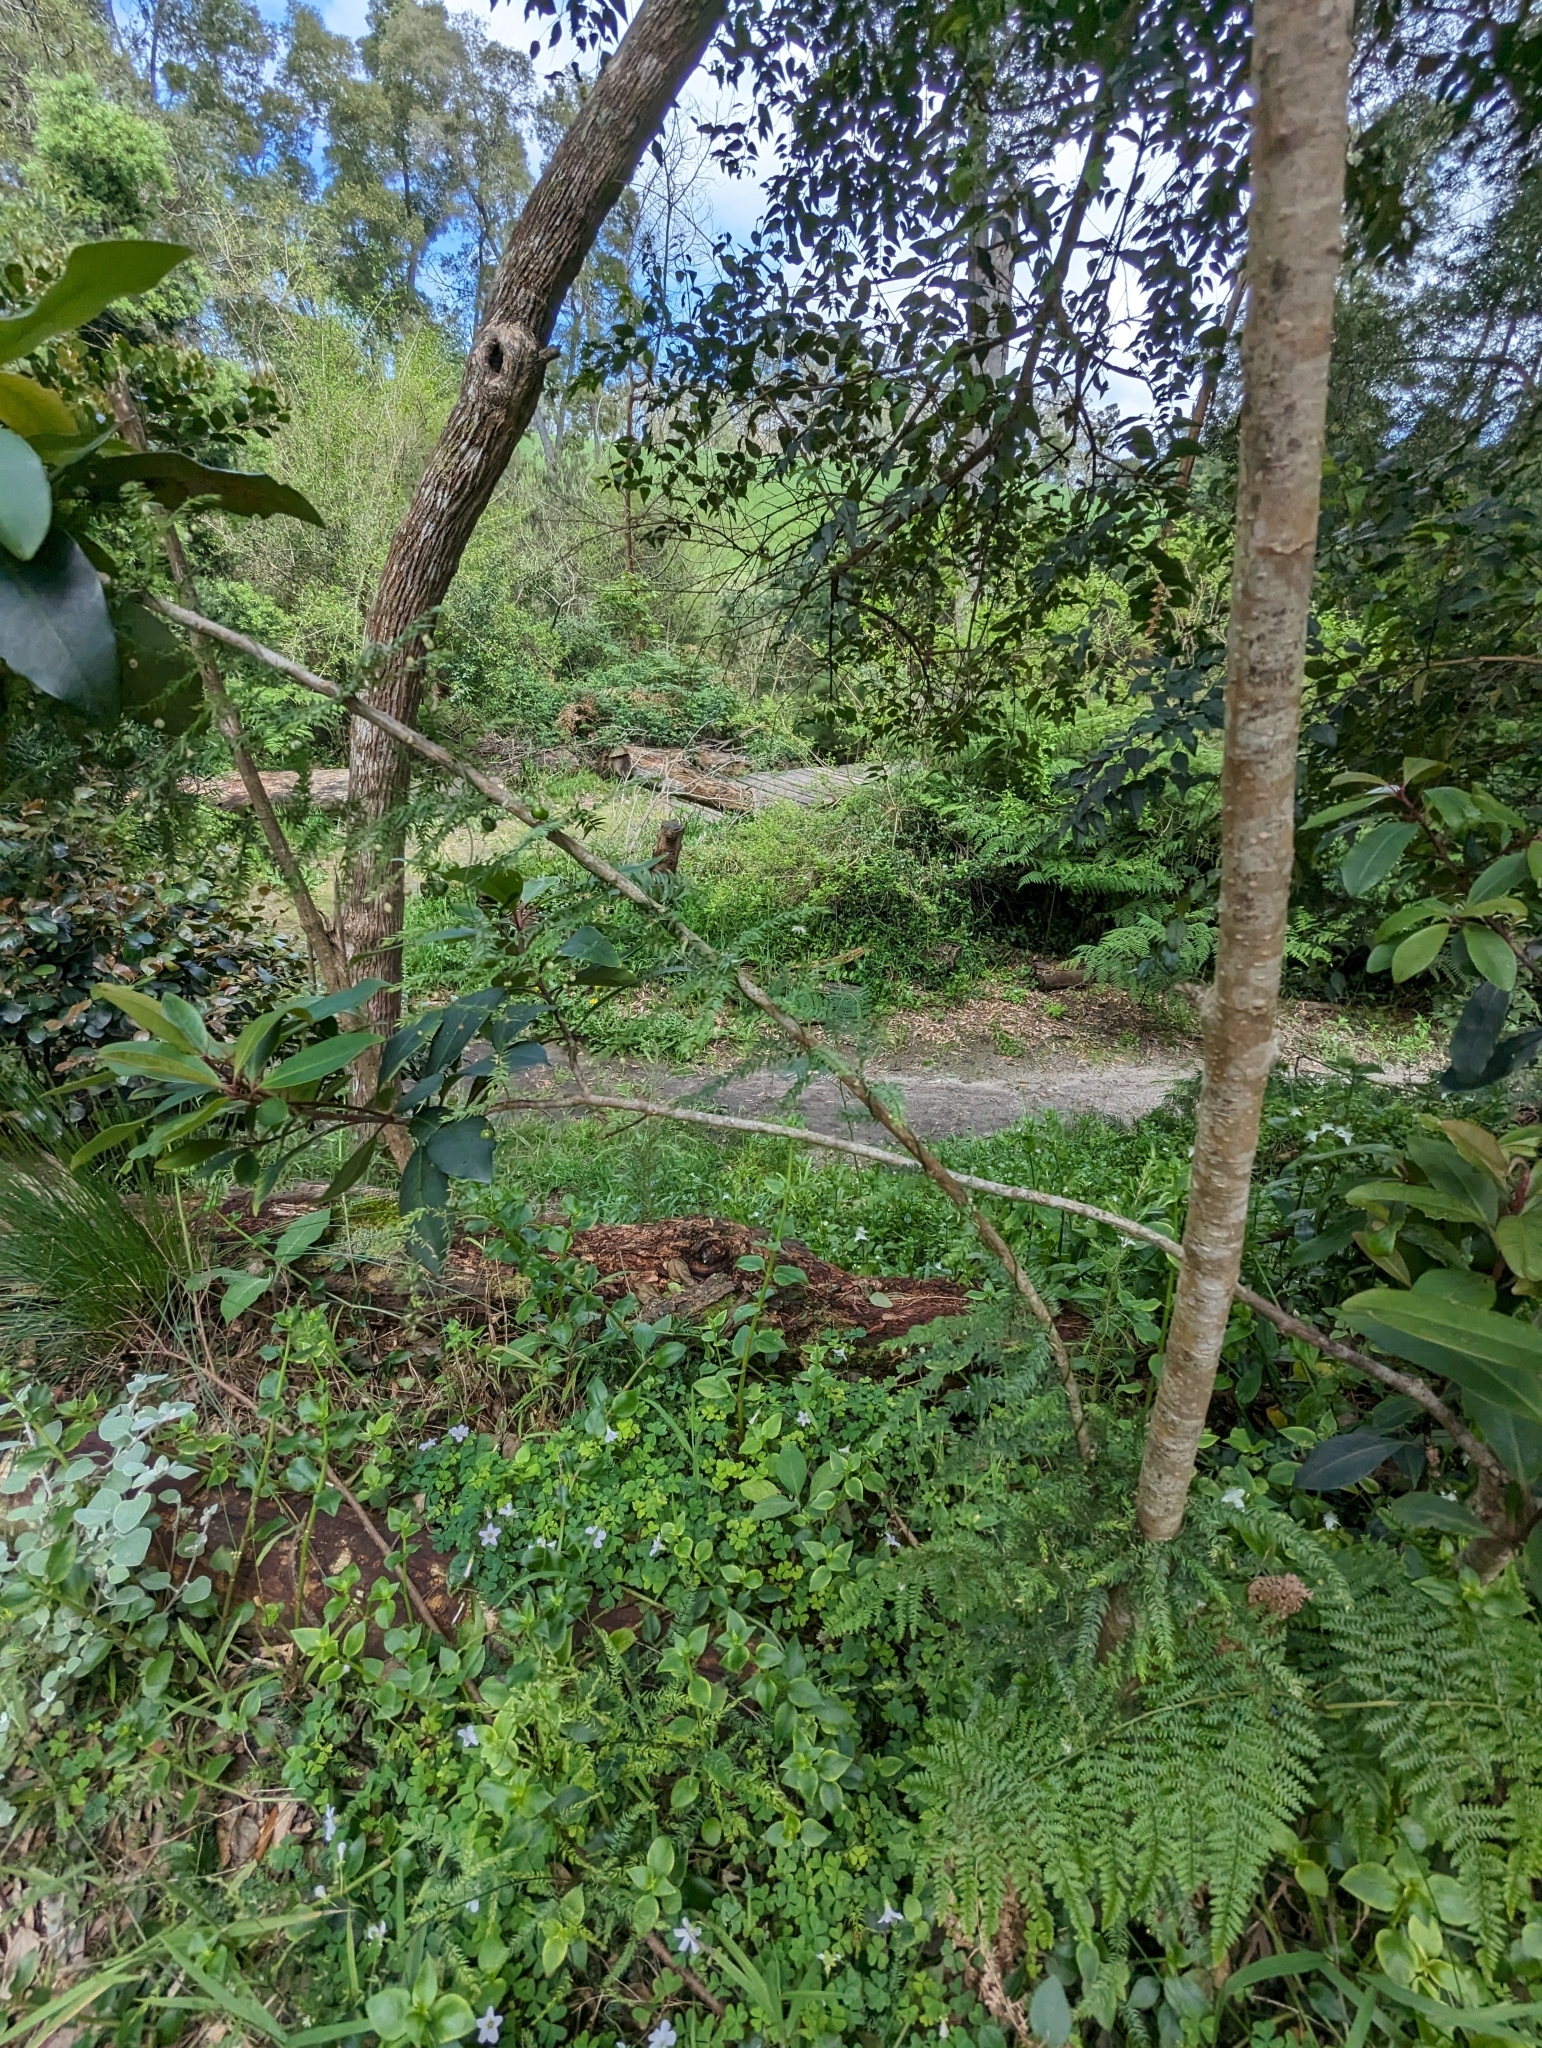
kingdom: Plantae
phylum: Tracheophyta
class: Liliopsida
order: Asparagales
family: Asparagaceae
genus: Asparagus
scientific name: Asparagus scandens
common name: Asparagus-fern
